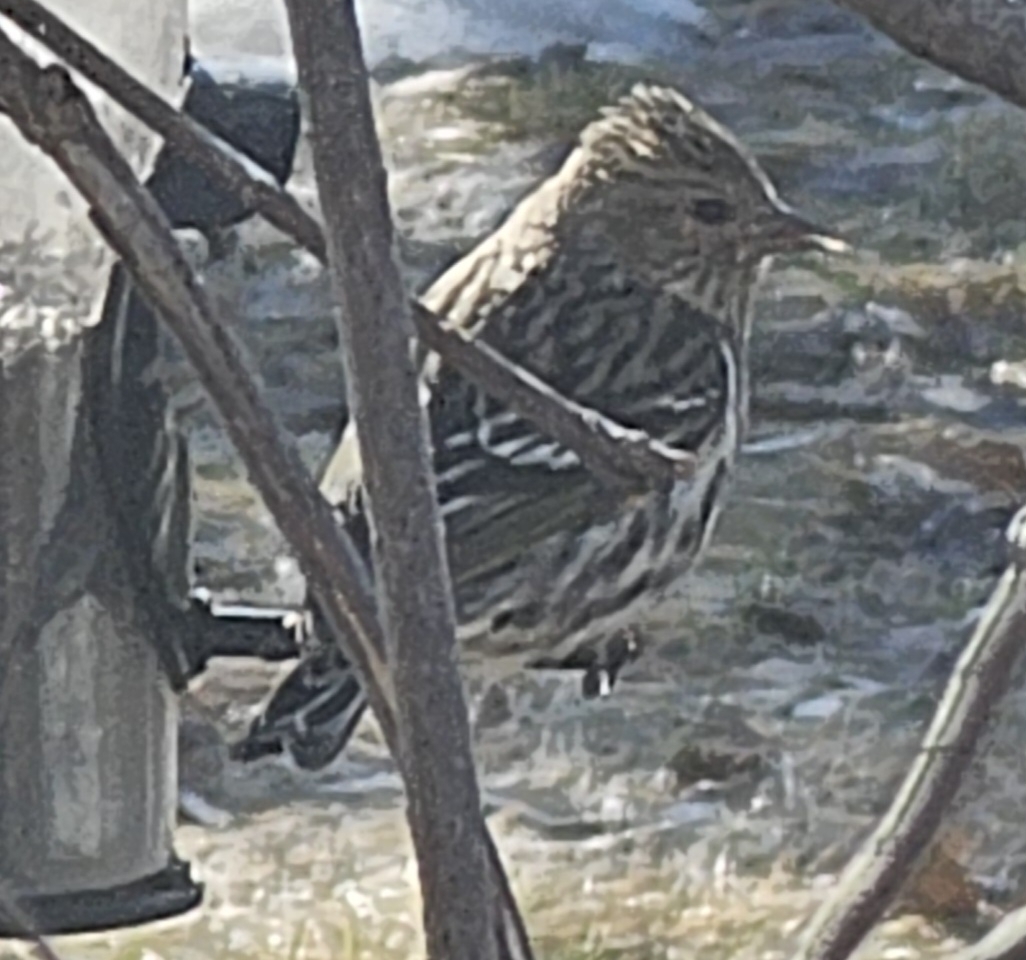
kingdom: Animalia
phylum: Chordata
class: Aves
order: Passeriformes
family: Fringillidae
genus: Spinus
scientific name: Spinus pinus
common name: Pine siskin
